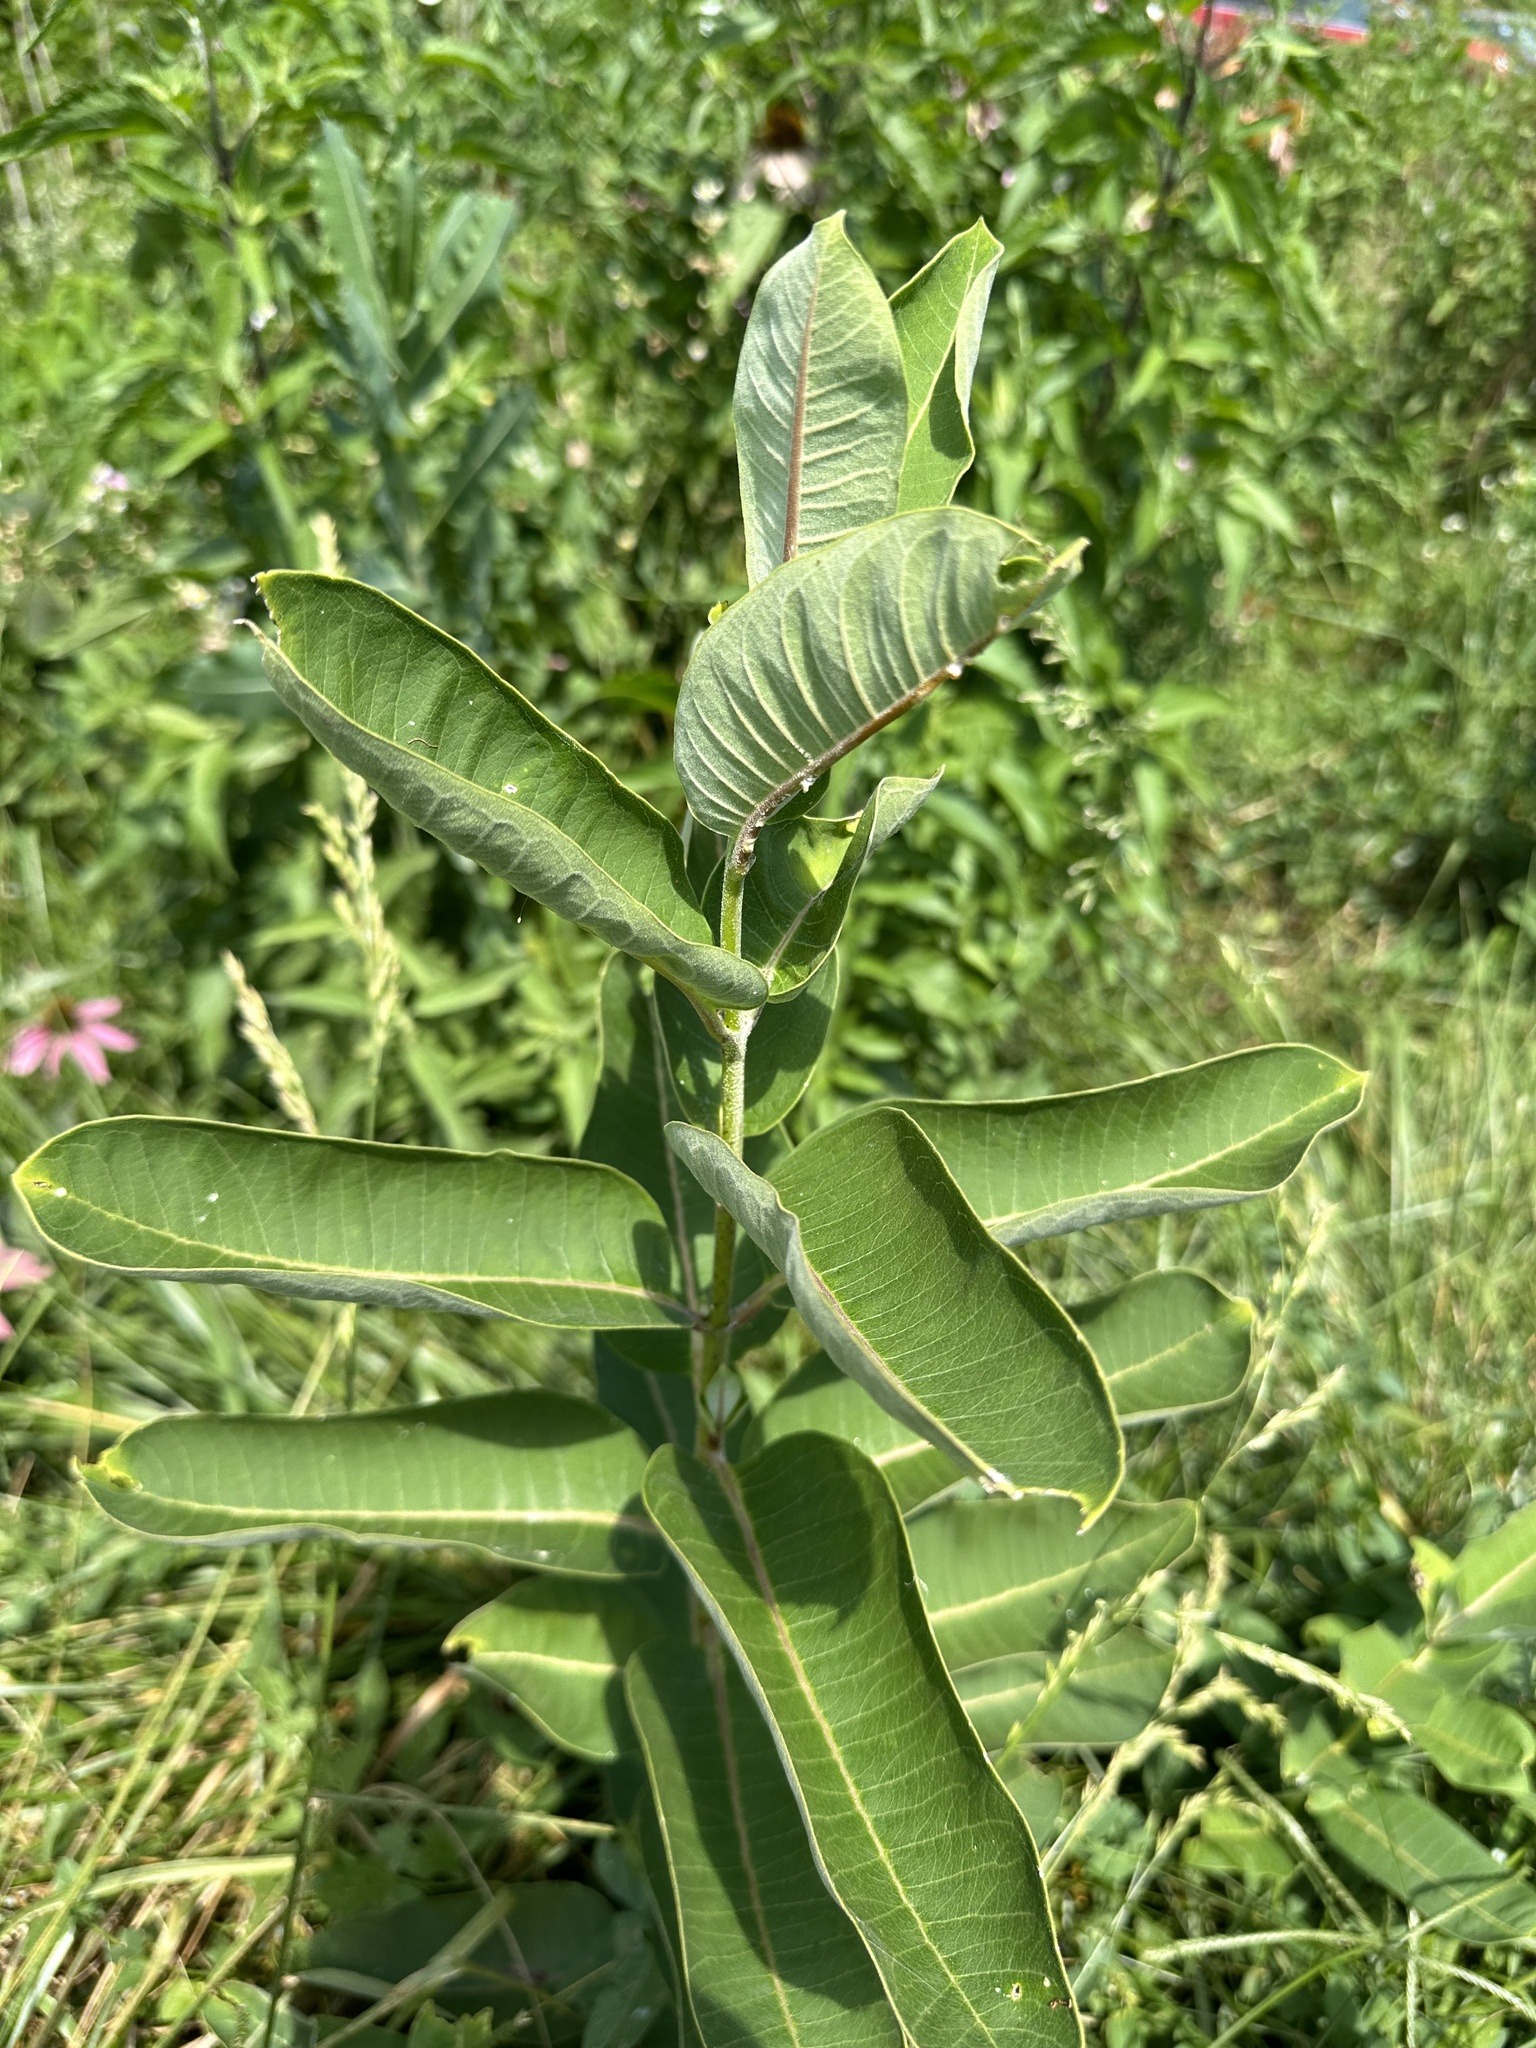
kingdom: Plantae
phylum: Tracheophyta
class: Magnoliopsida
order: Gentianales
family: Apocynaceae
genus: Asclepias
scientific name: Asclepias syriaca
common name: Common milkweed
